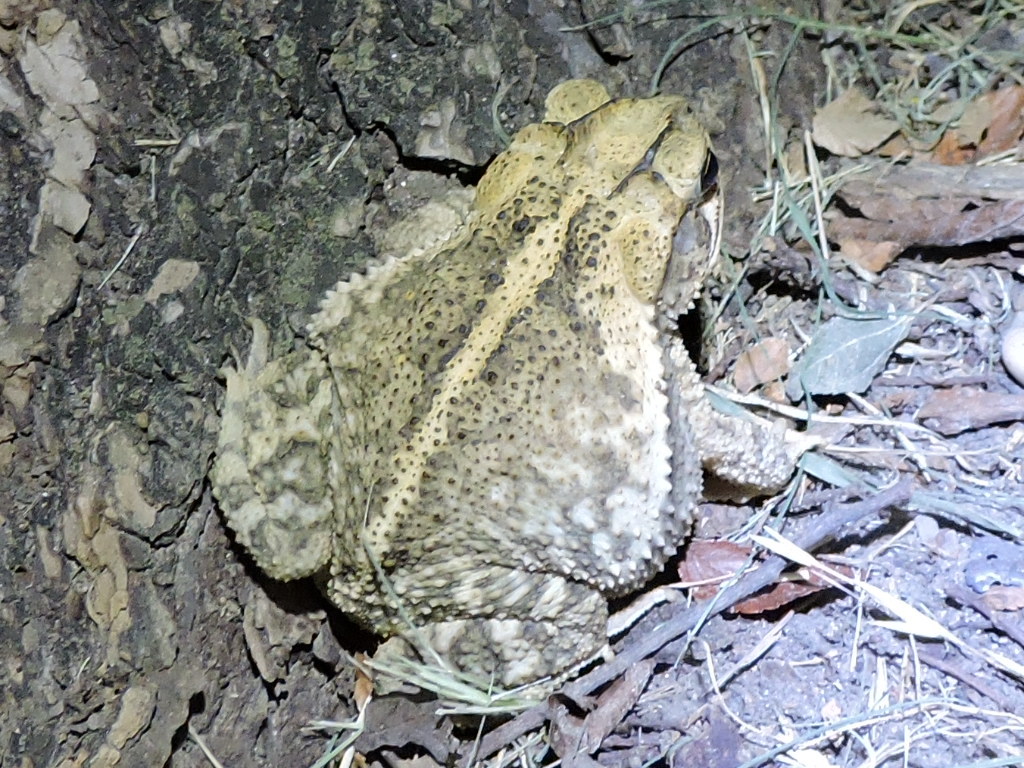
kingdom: Animalia
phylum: Chordata
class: Amphibia
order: Anura
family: Bufonidae
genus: Incilius
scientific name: Incilius nebulifer
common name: Gulf coast toad
